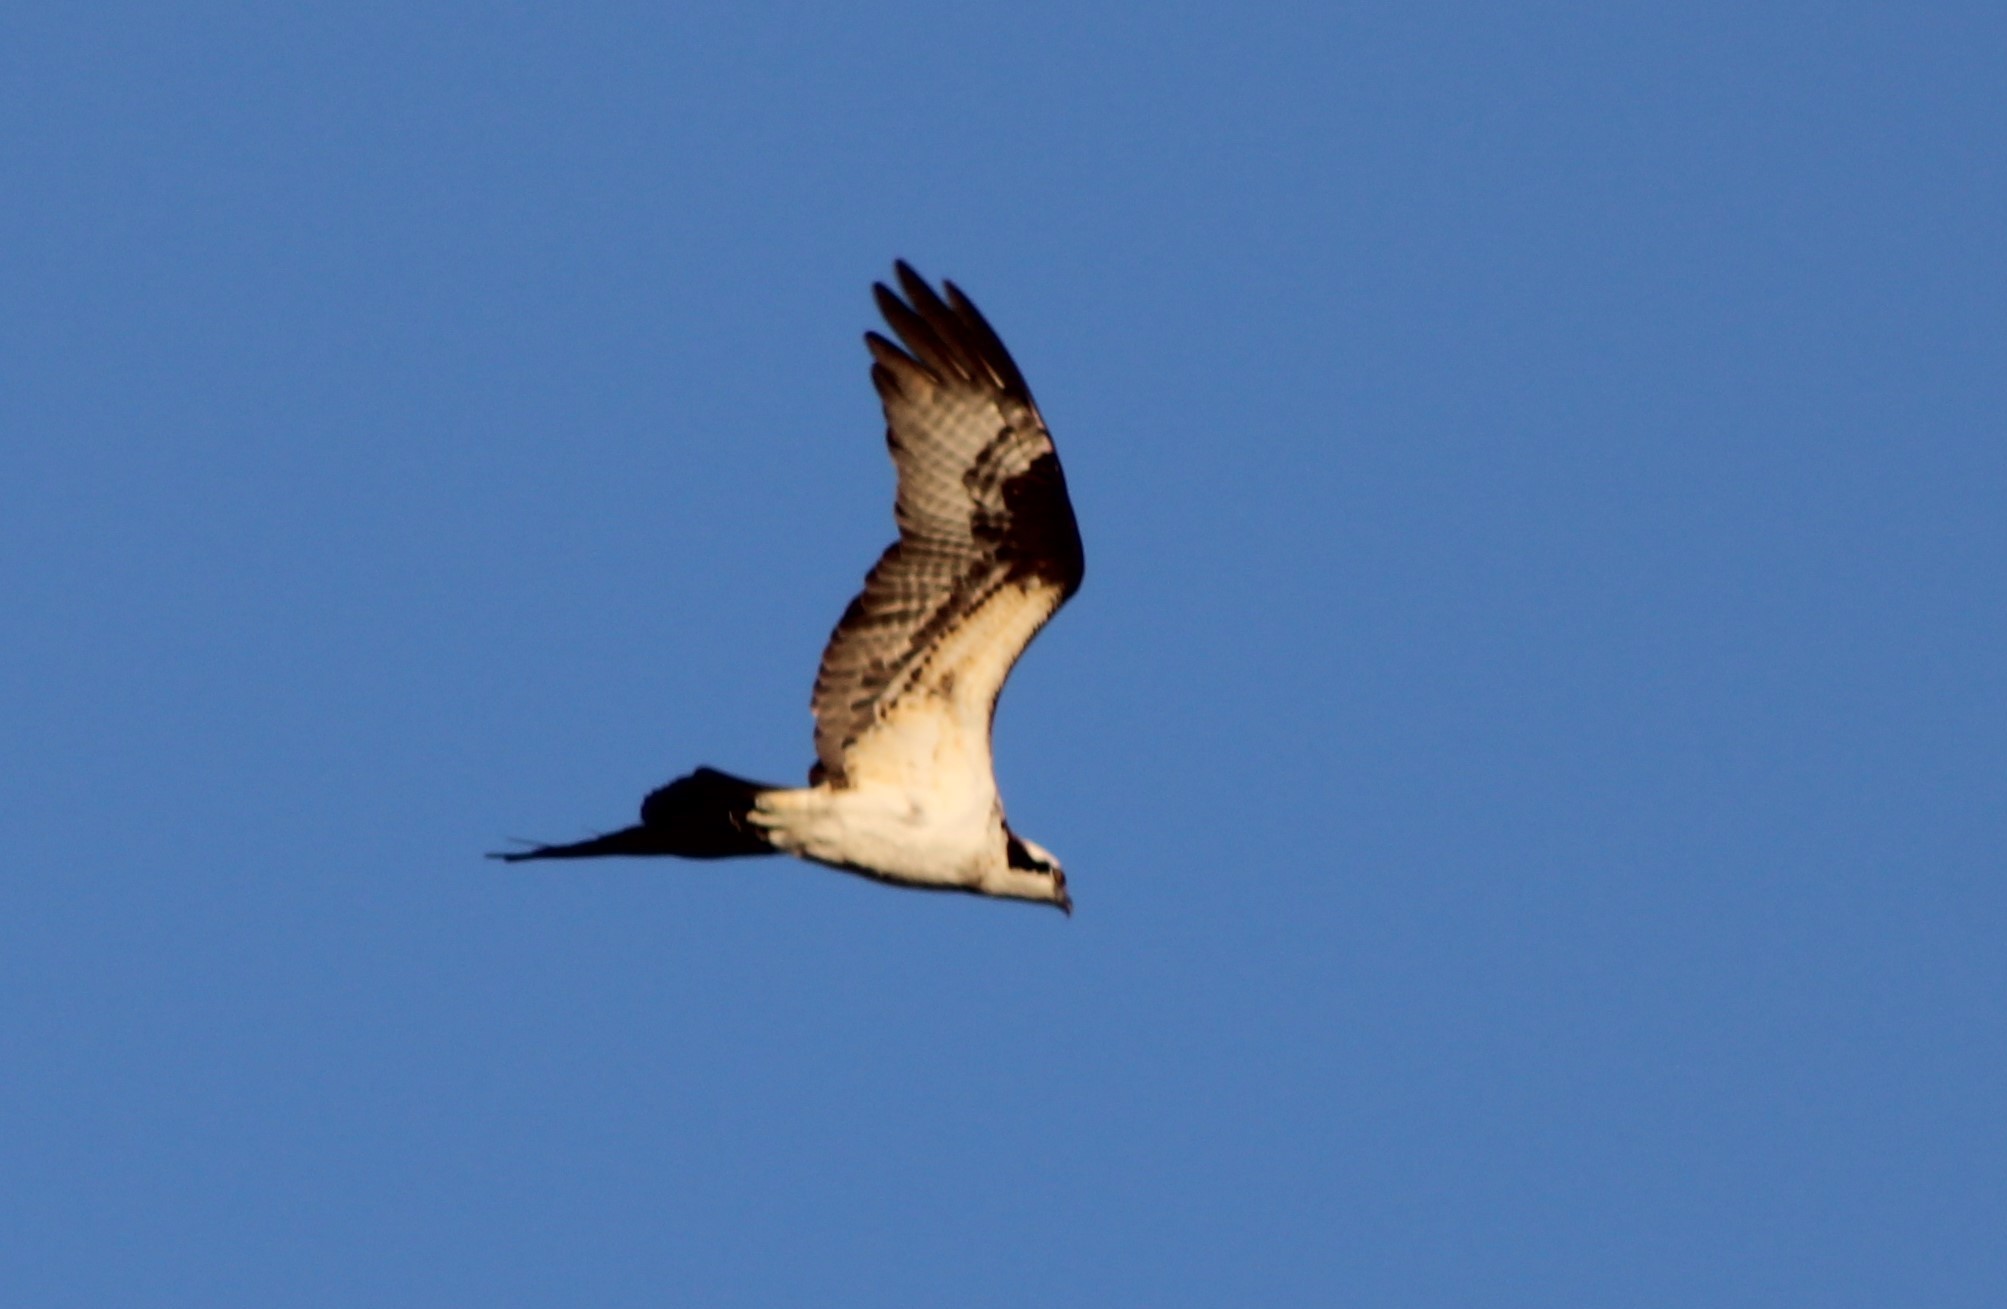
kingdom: Animalia
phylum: Chordata
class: Aves
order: Accipitriformes
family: Pandionidae
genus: Pandion
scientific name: Pandion haliaetus
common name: Osprey
